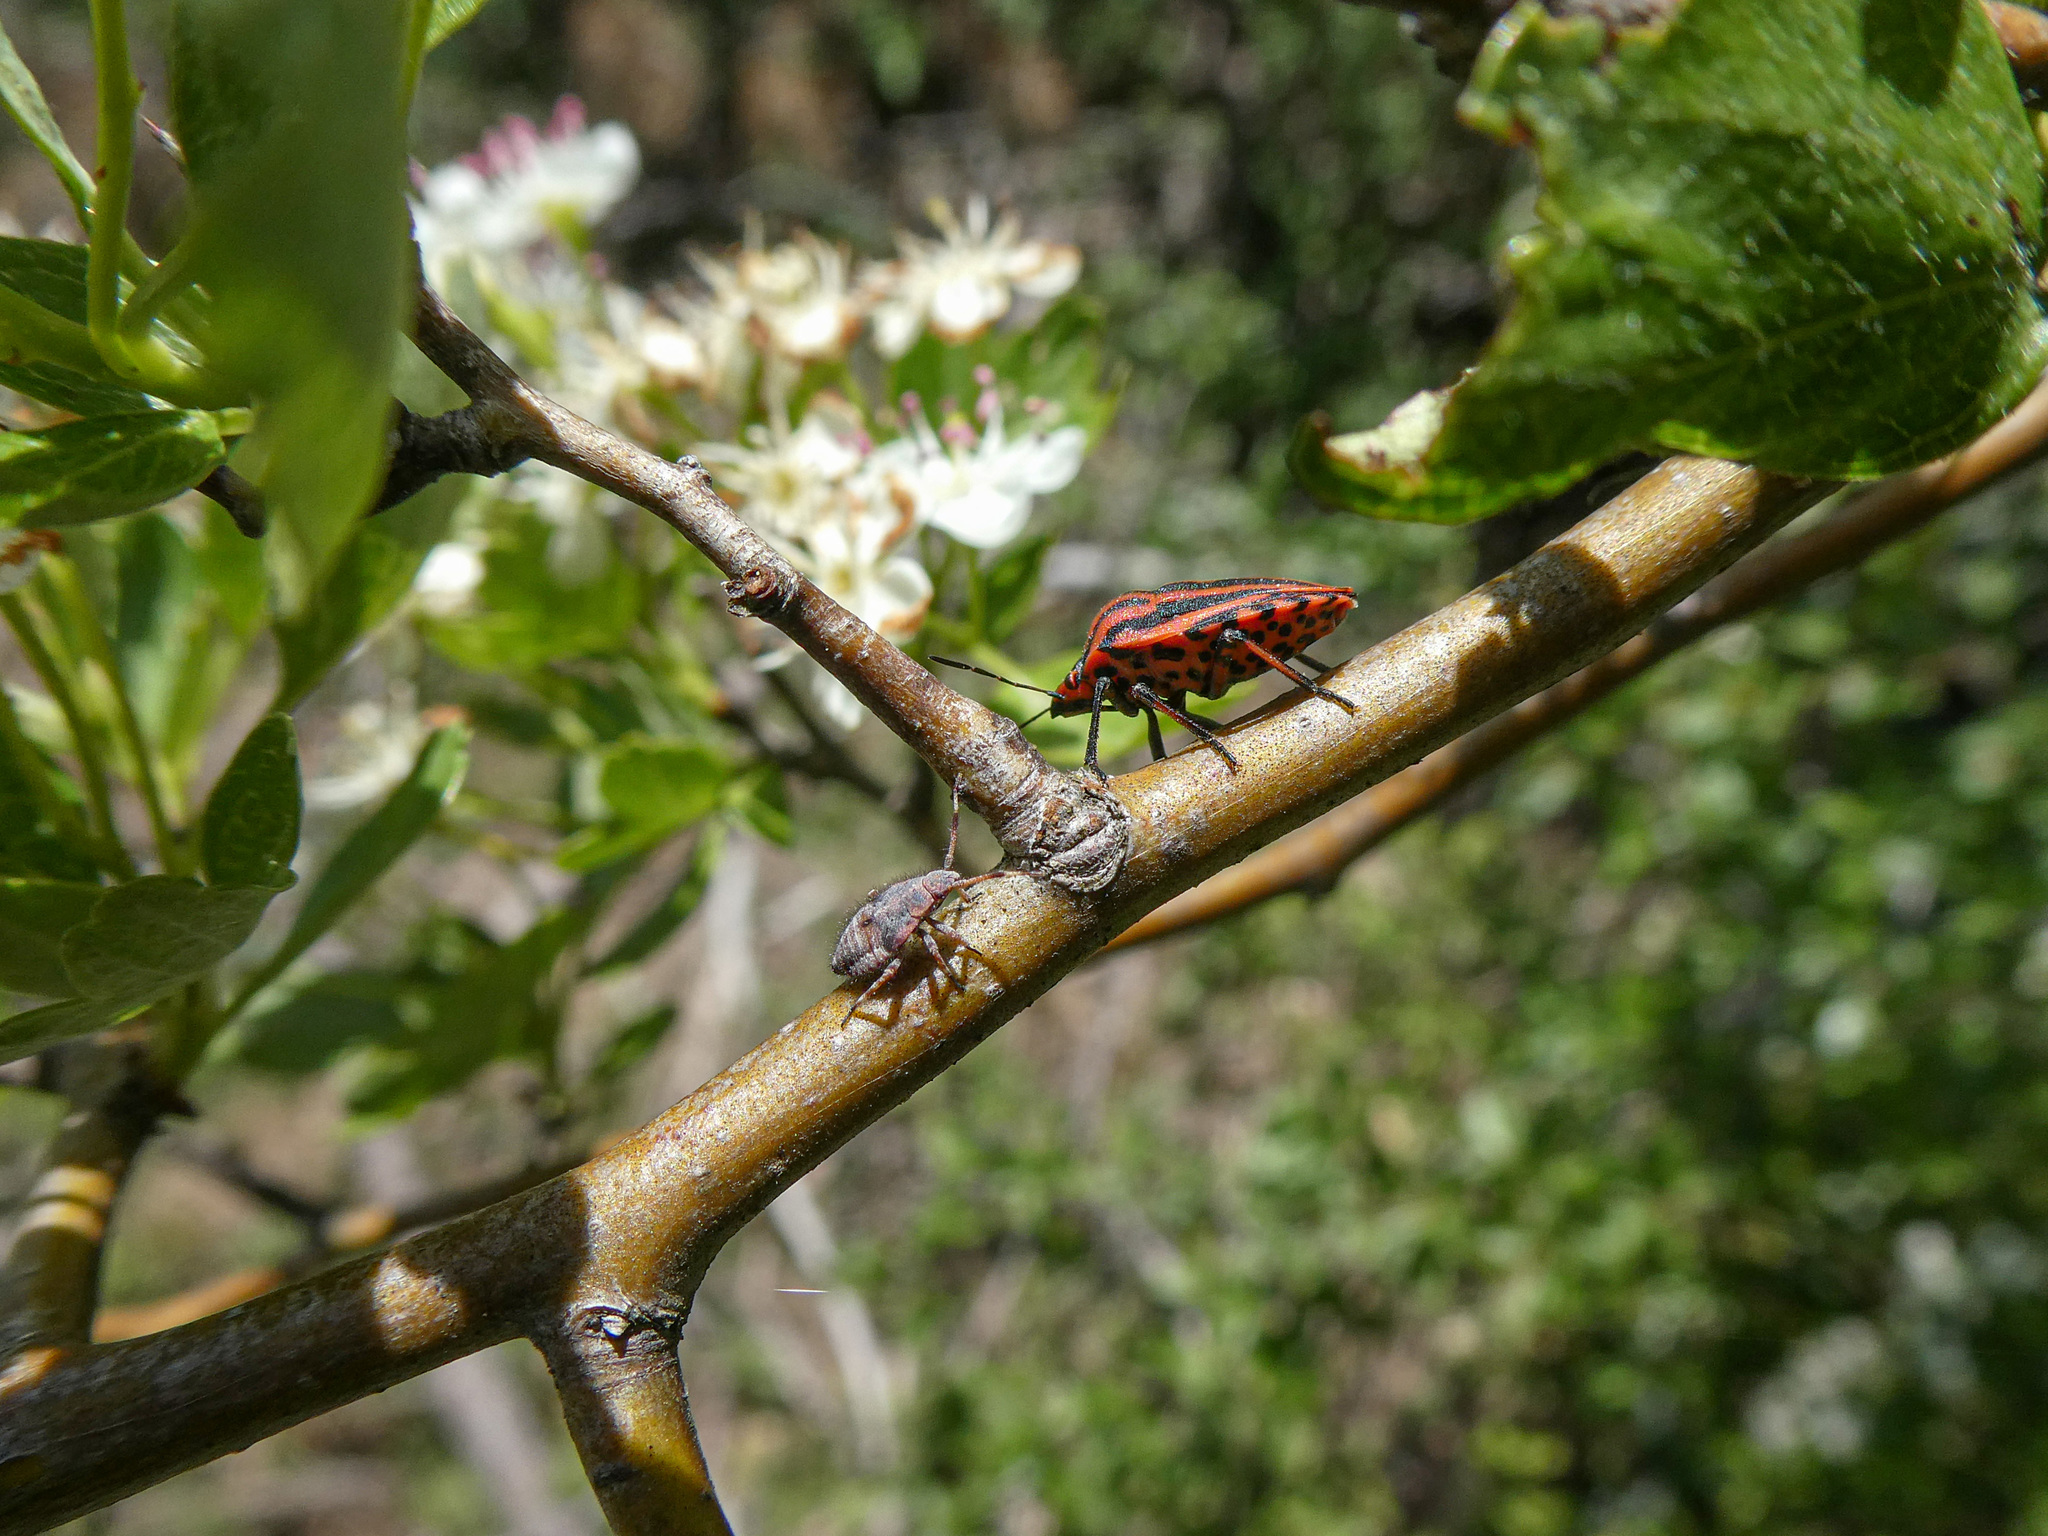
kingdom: Animalia
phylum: Arthropoda
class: Insecta
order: Hemiptera
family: Pentatomidae
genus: Graphosoma
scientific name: Graphosoma italicum
